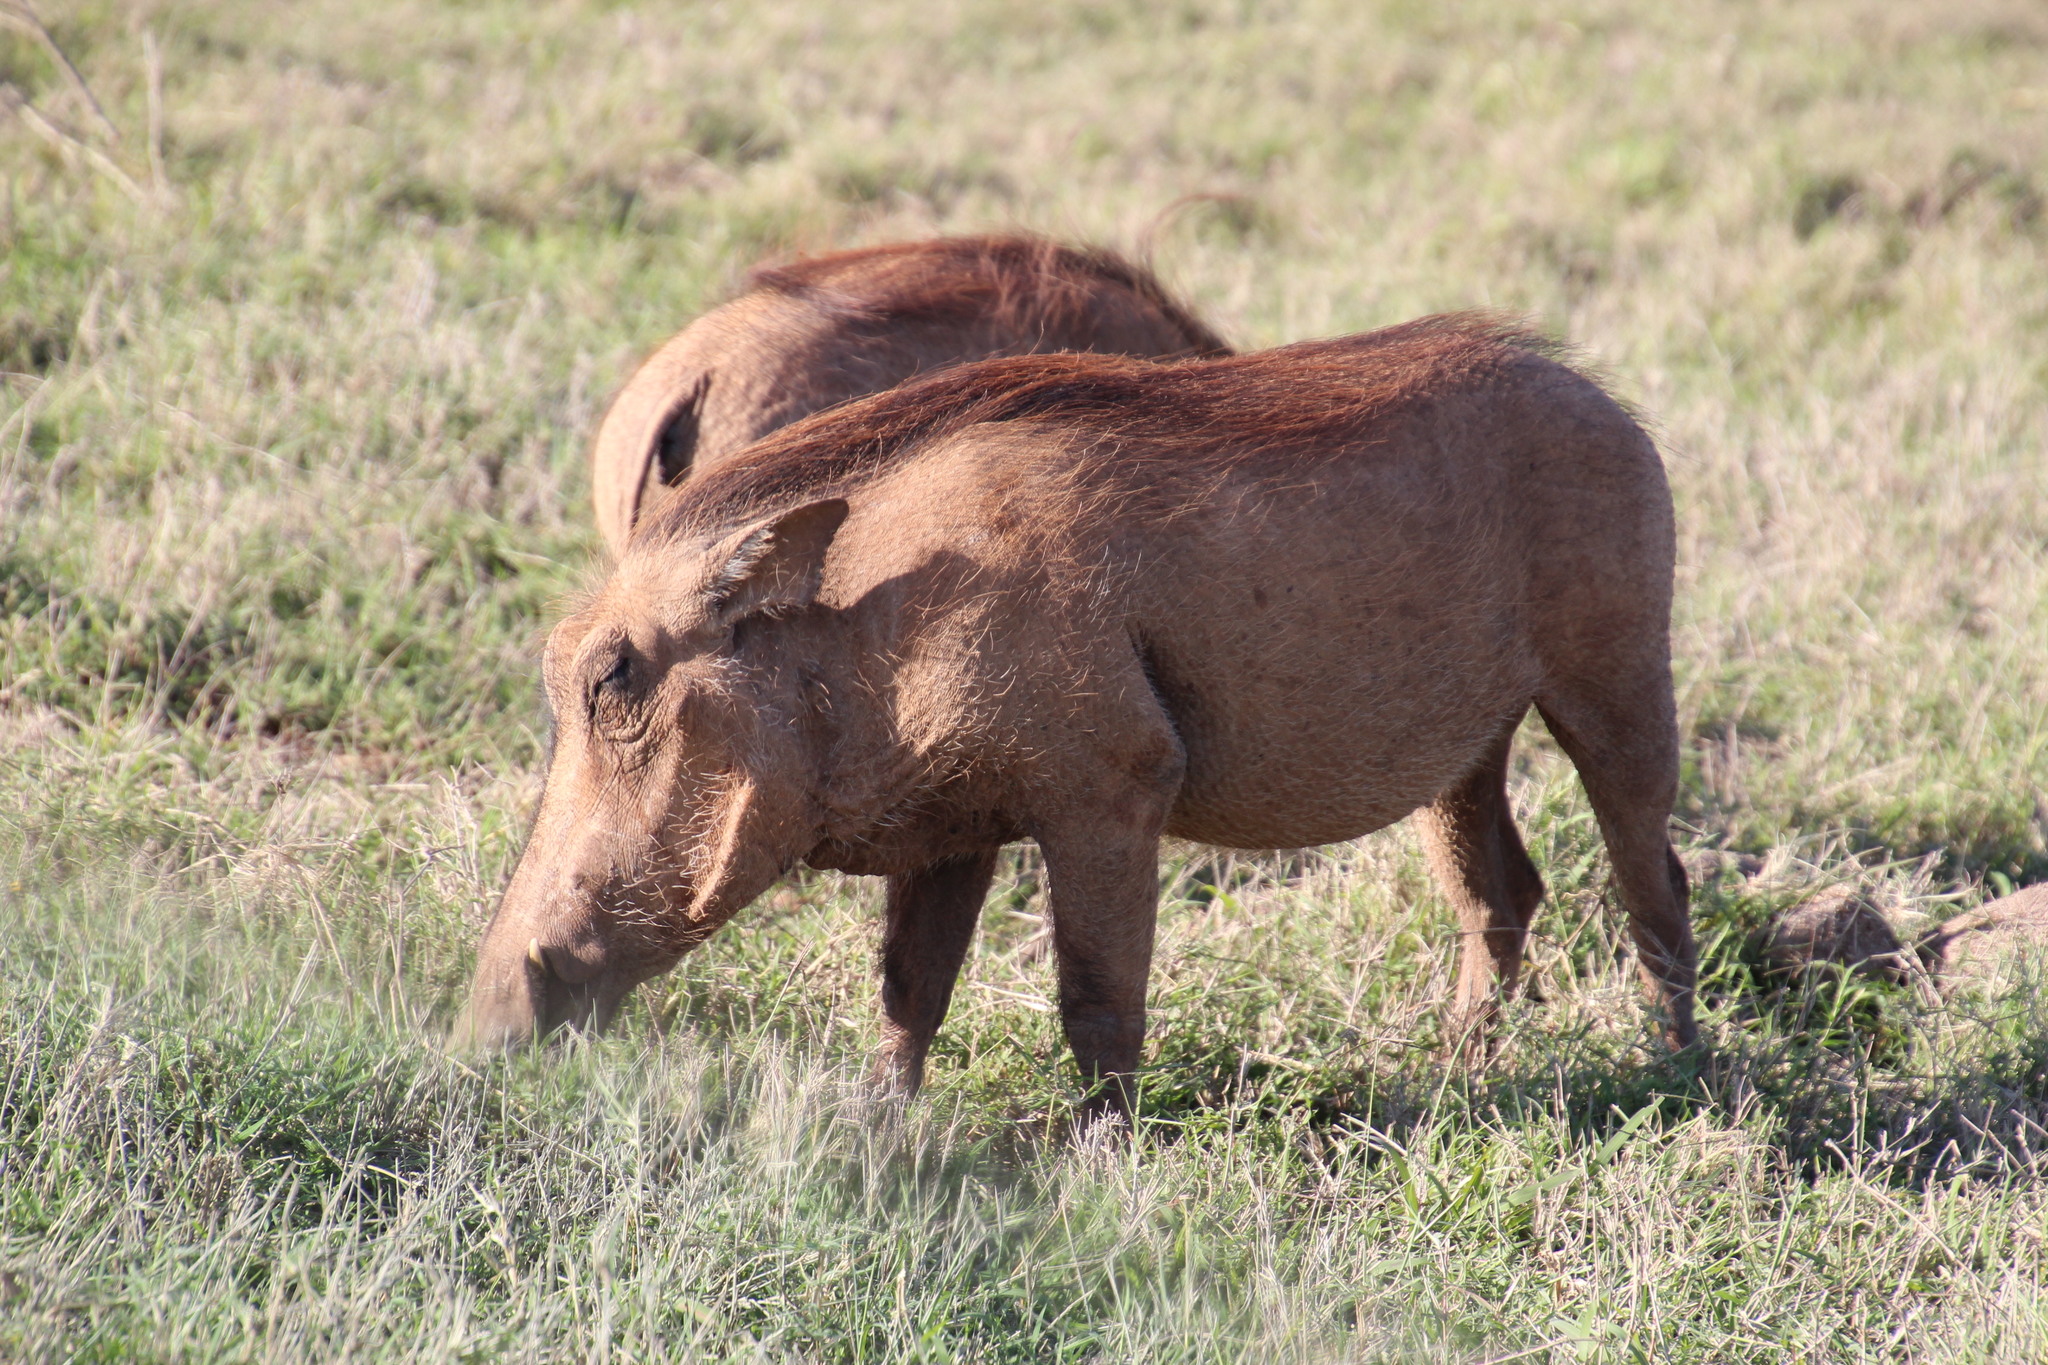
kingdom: Animalia
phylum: Chordata
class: Mammalia
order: Artiodactyla
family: Suidae
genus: Phacochoerus
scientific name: Phacochoerus africanus
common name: Common warthog
